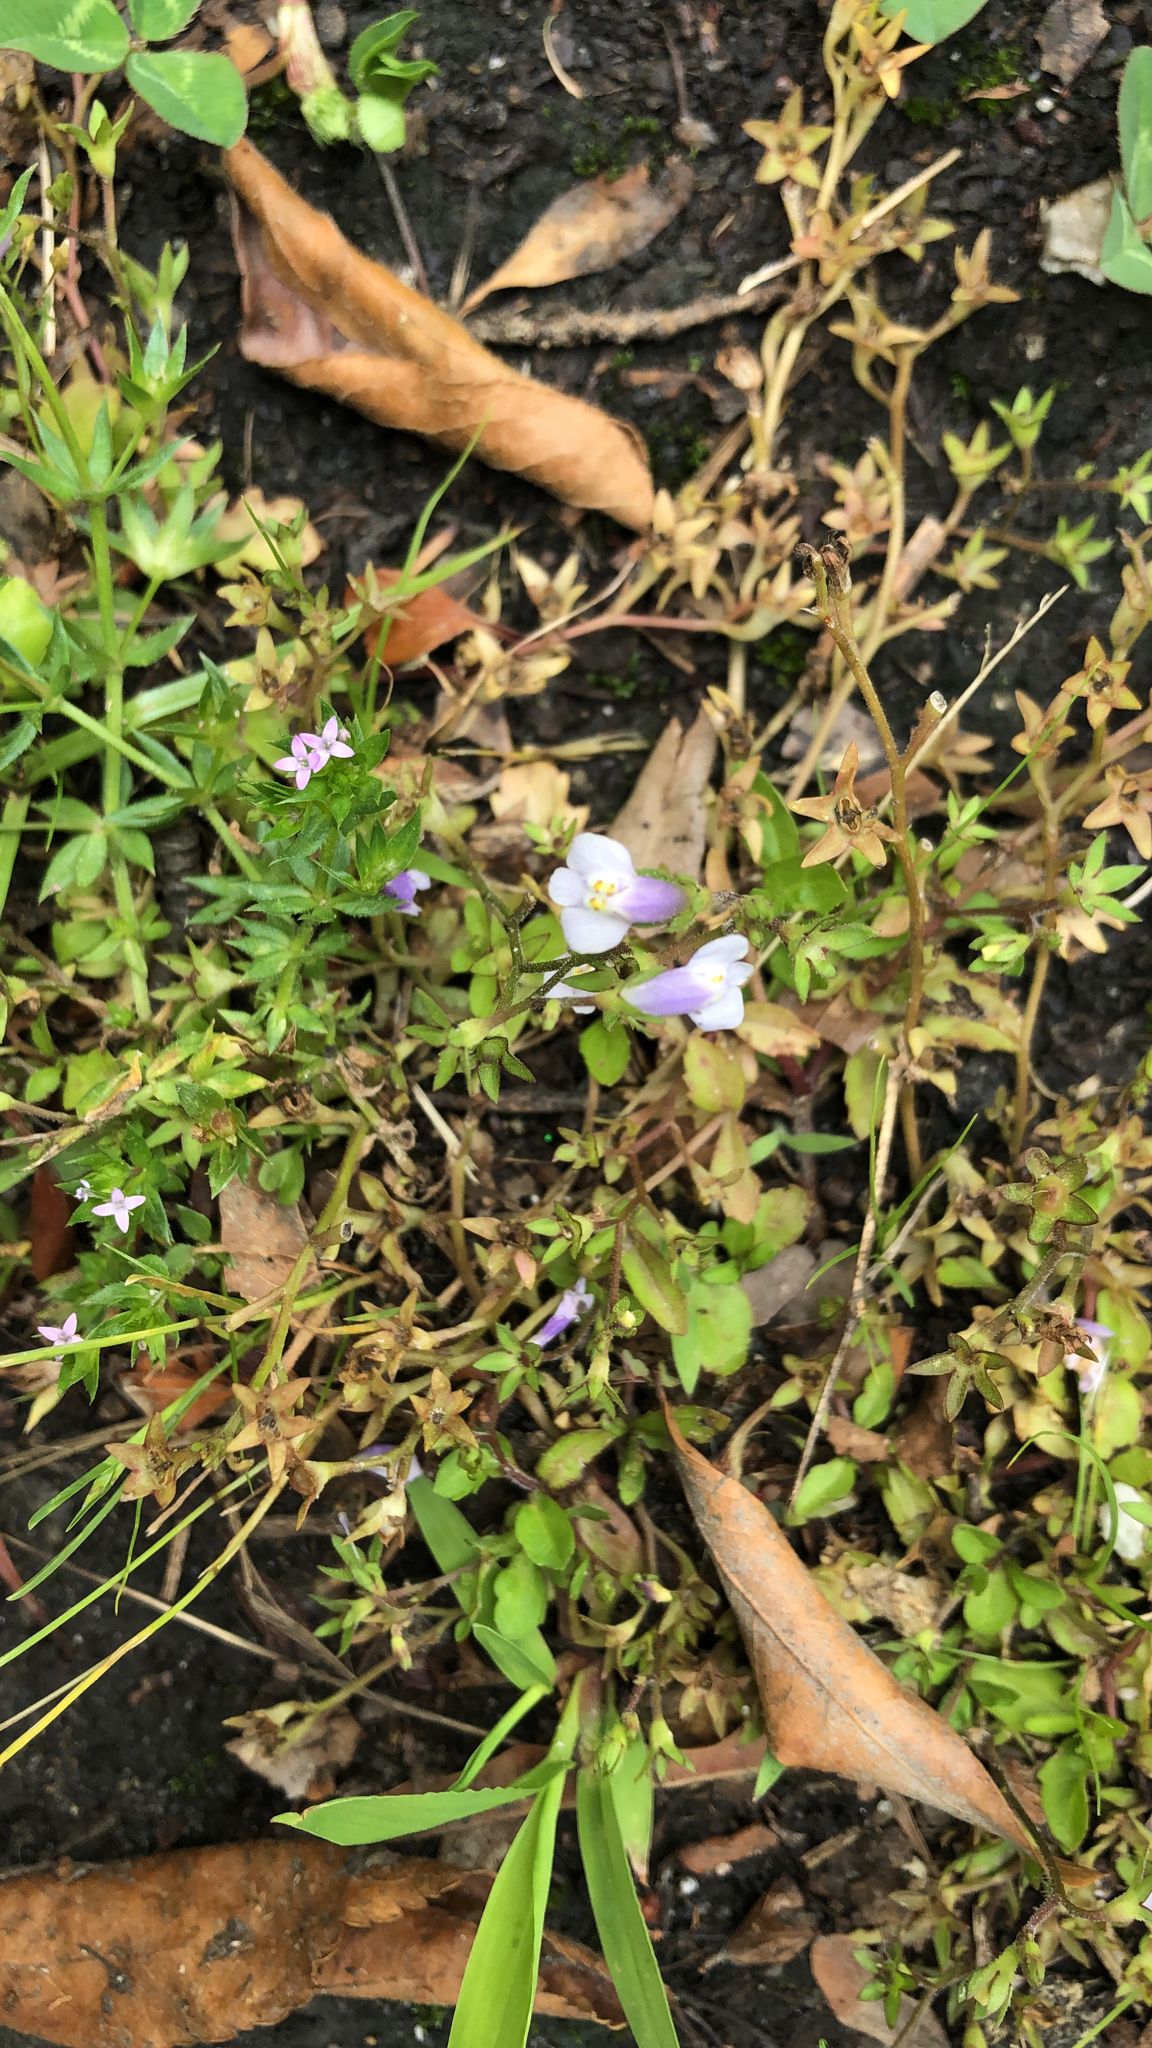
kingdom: Plantae
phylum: Tracheophyta
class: Magnoliopsida
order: Lamiales
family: Mazaceae
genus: Mazus
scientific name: Mazus pumilus
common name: Japanese mazus
